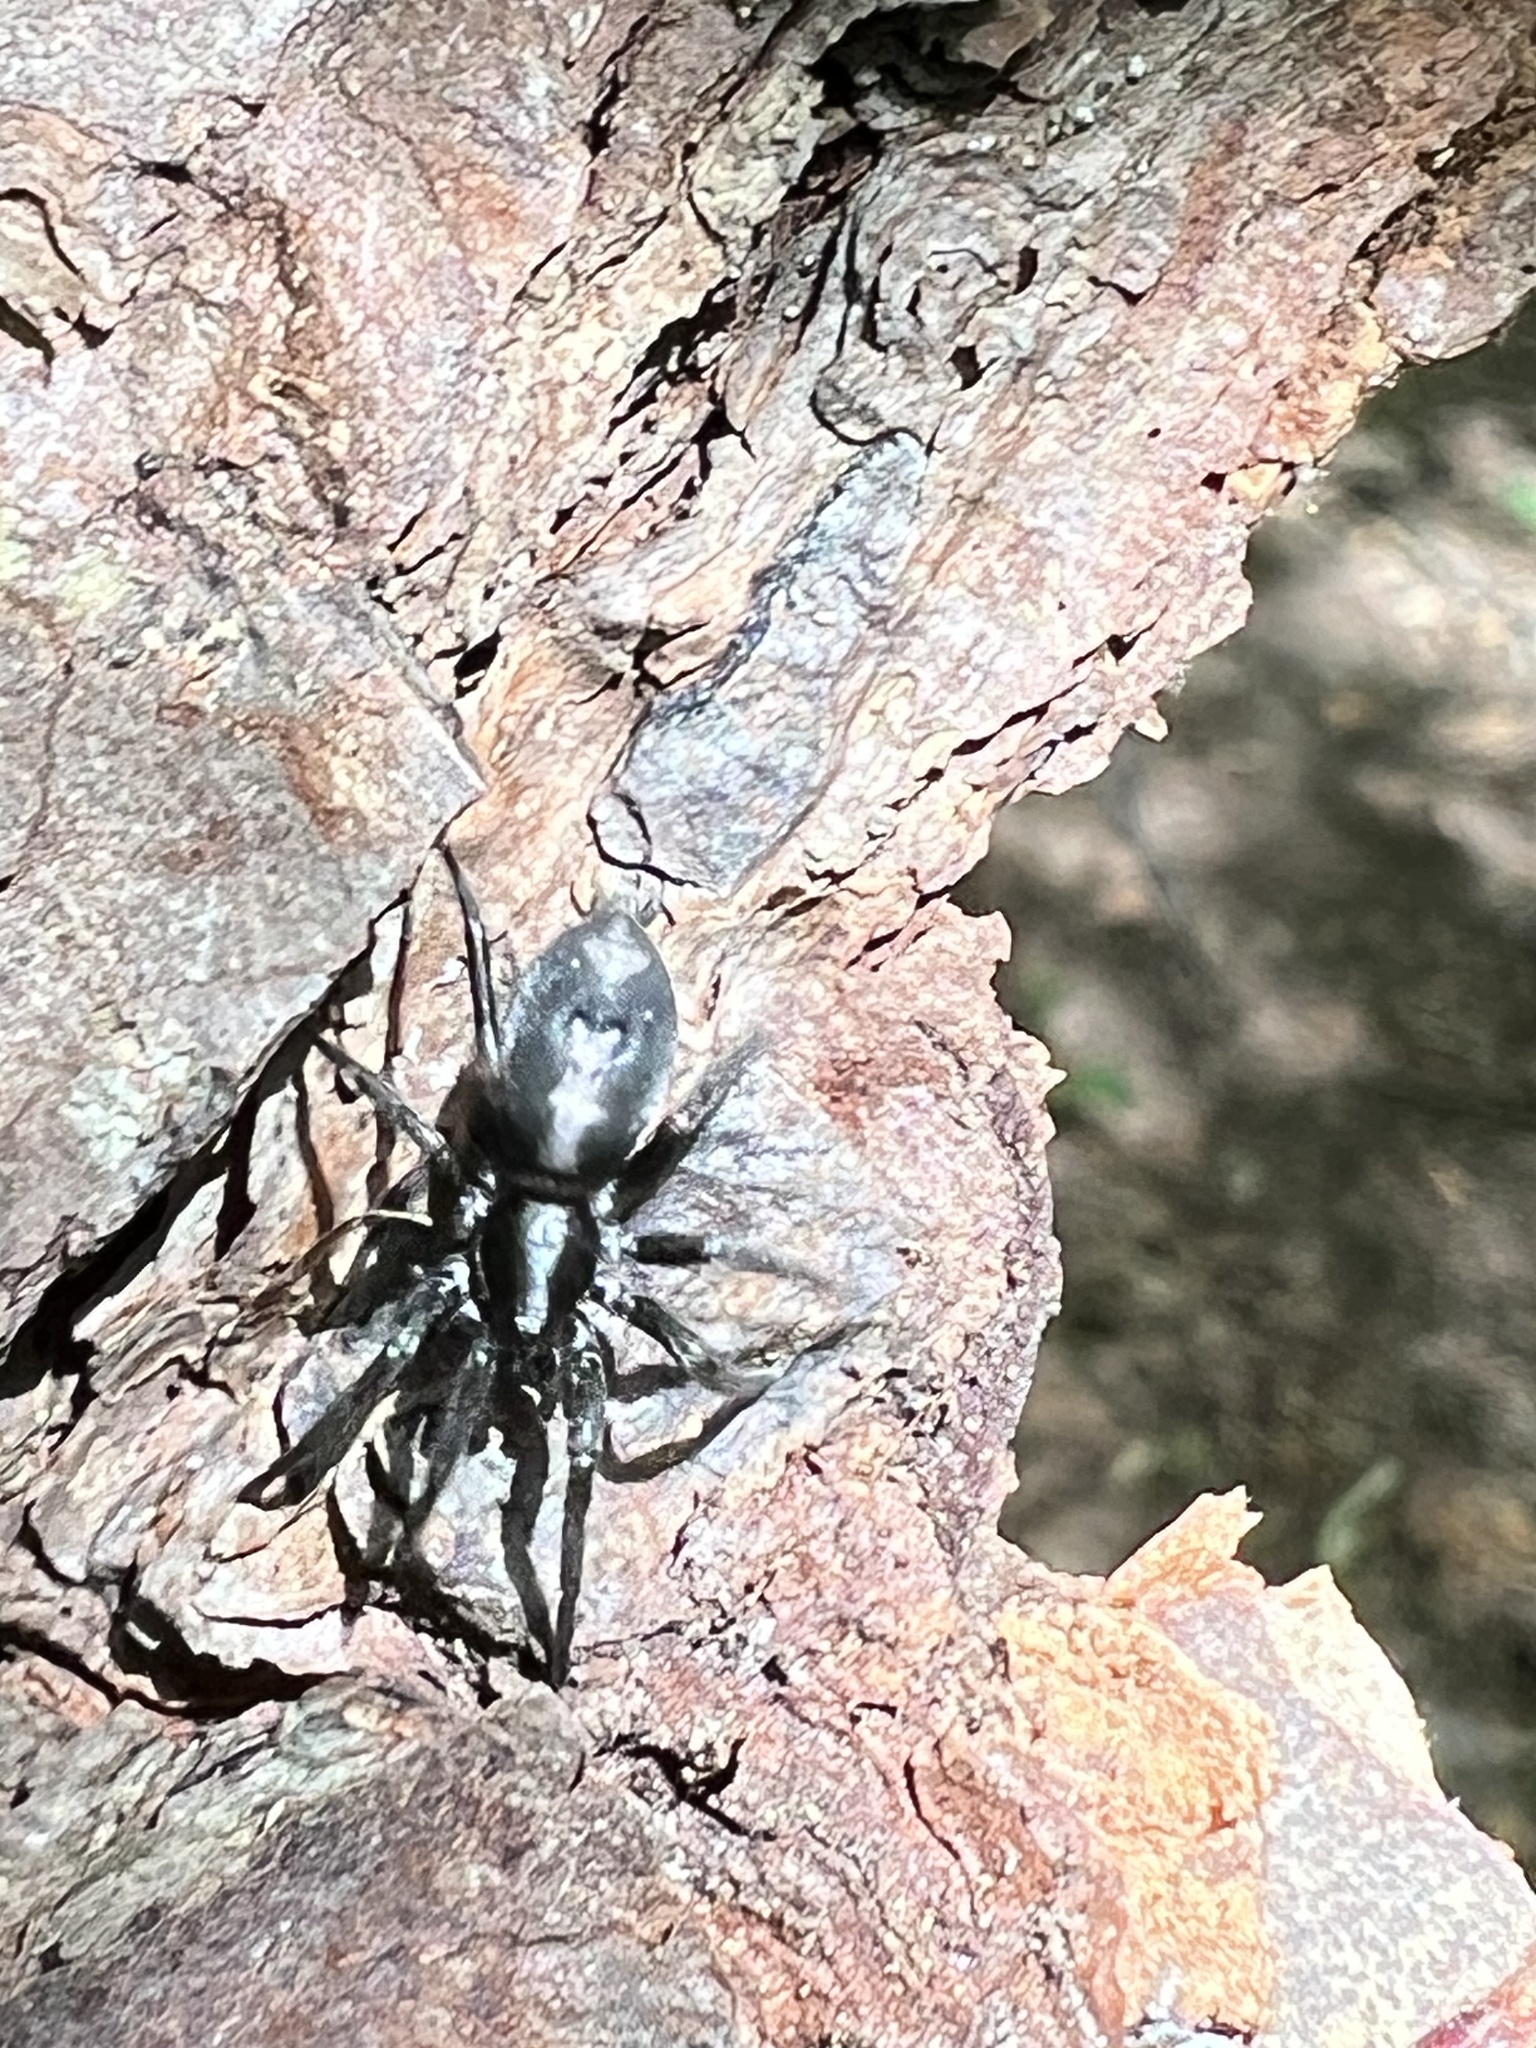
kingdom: Animalia
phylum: Arthropoda
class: Arachnida
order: Araneae
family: Gnaphosidae
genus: Herpyllus
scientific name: Herpyllus ecclesiasticus
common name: Eastern parson spider
